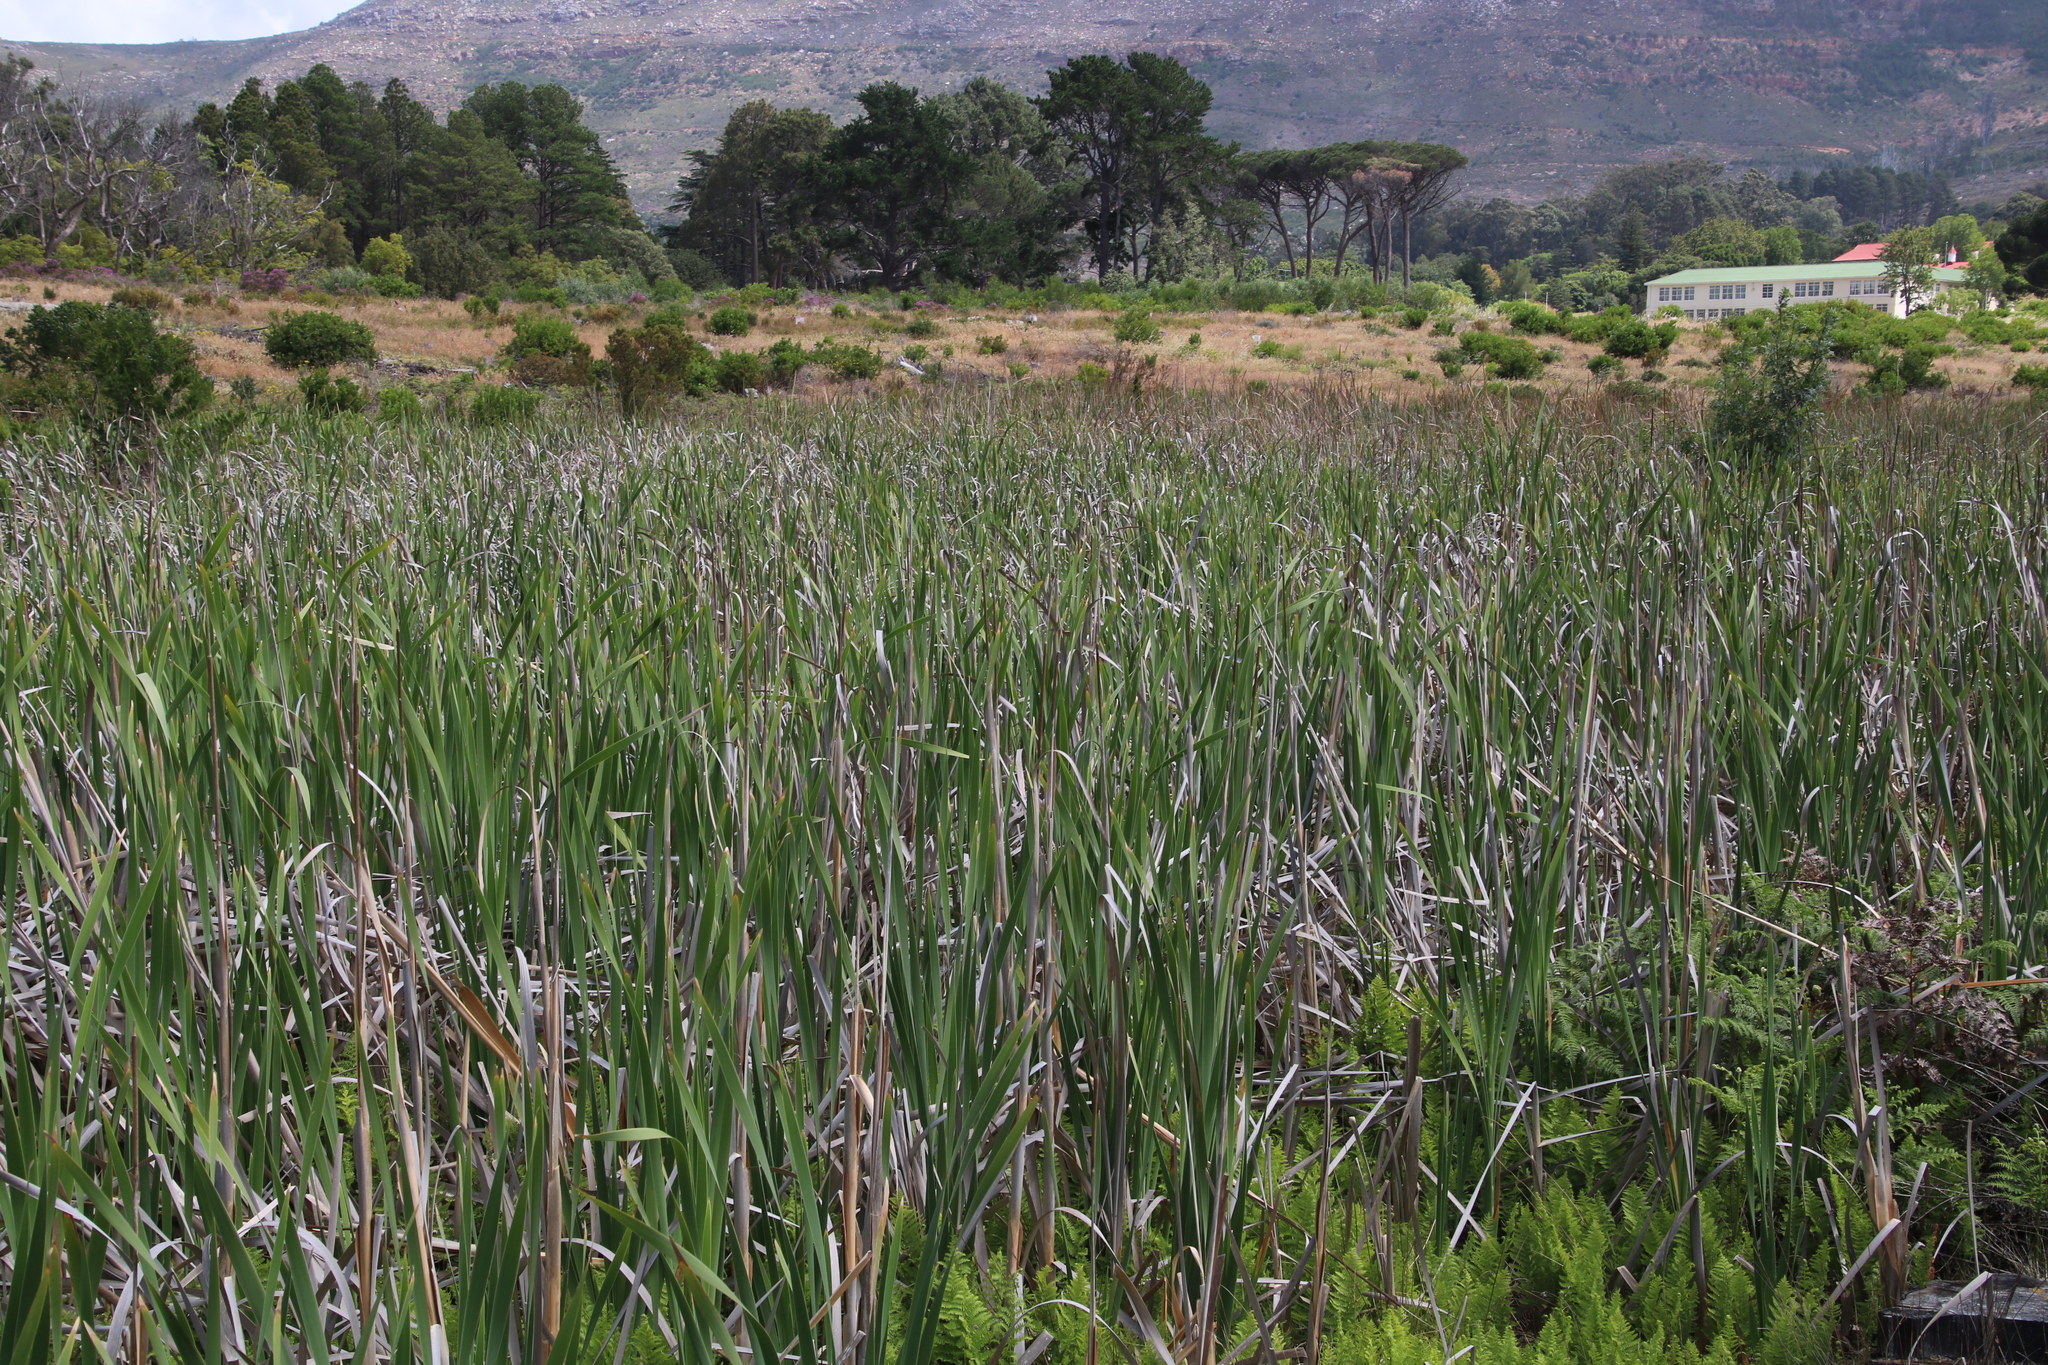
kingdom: Plantae
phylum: Tracheophyta
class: Liliopsida
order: Poales
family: Typhaceae
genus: Typha
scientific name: Typha capensis
